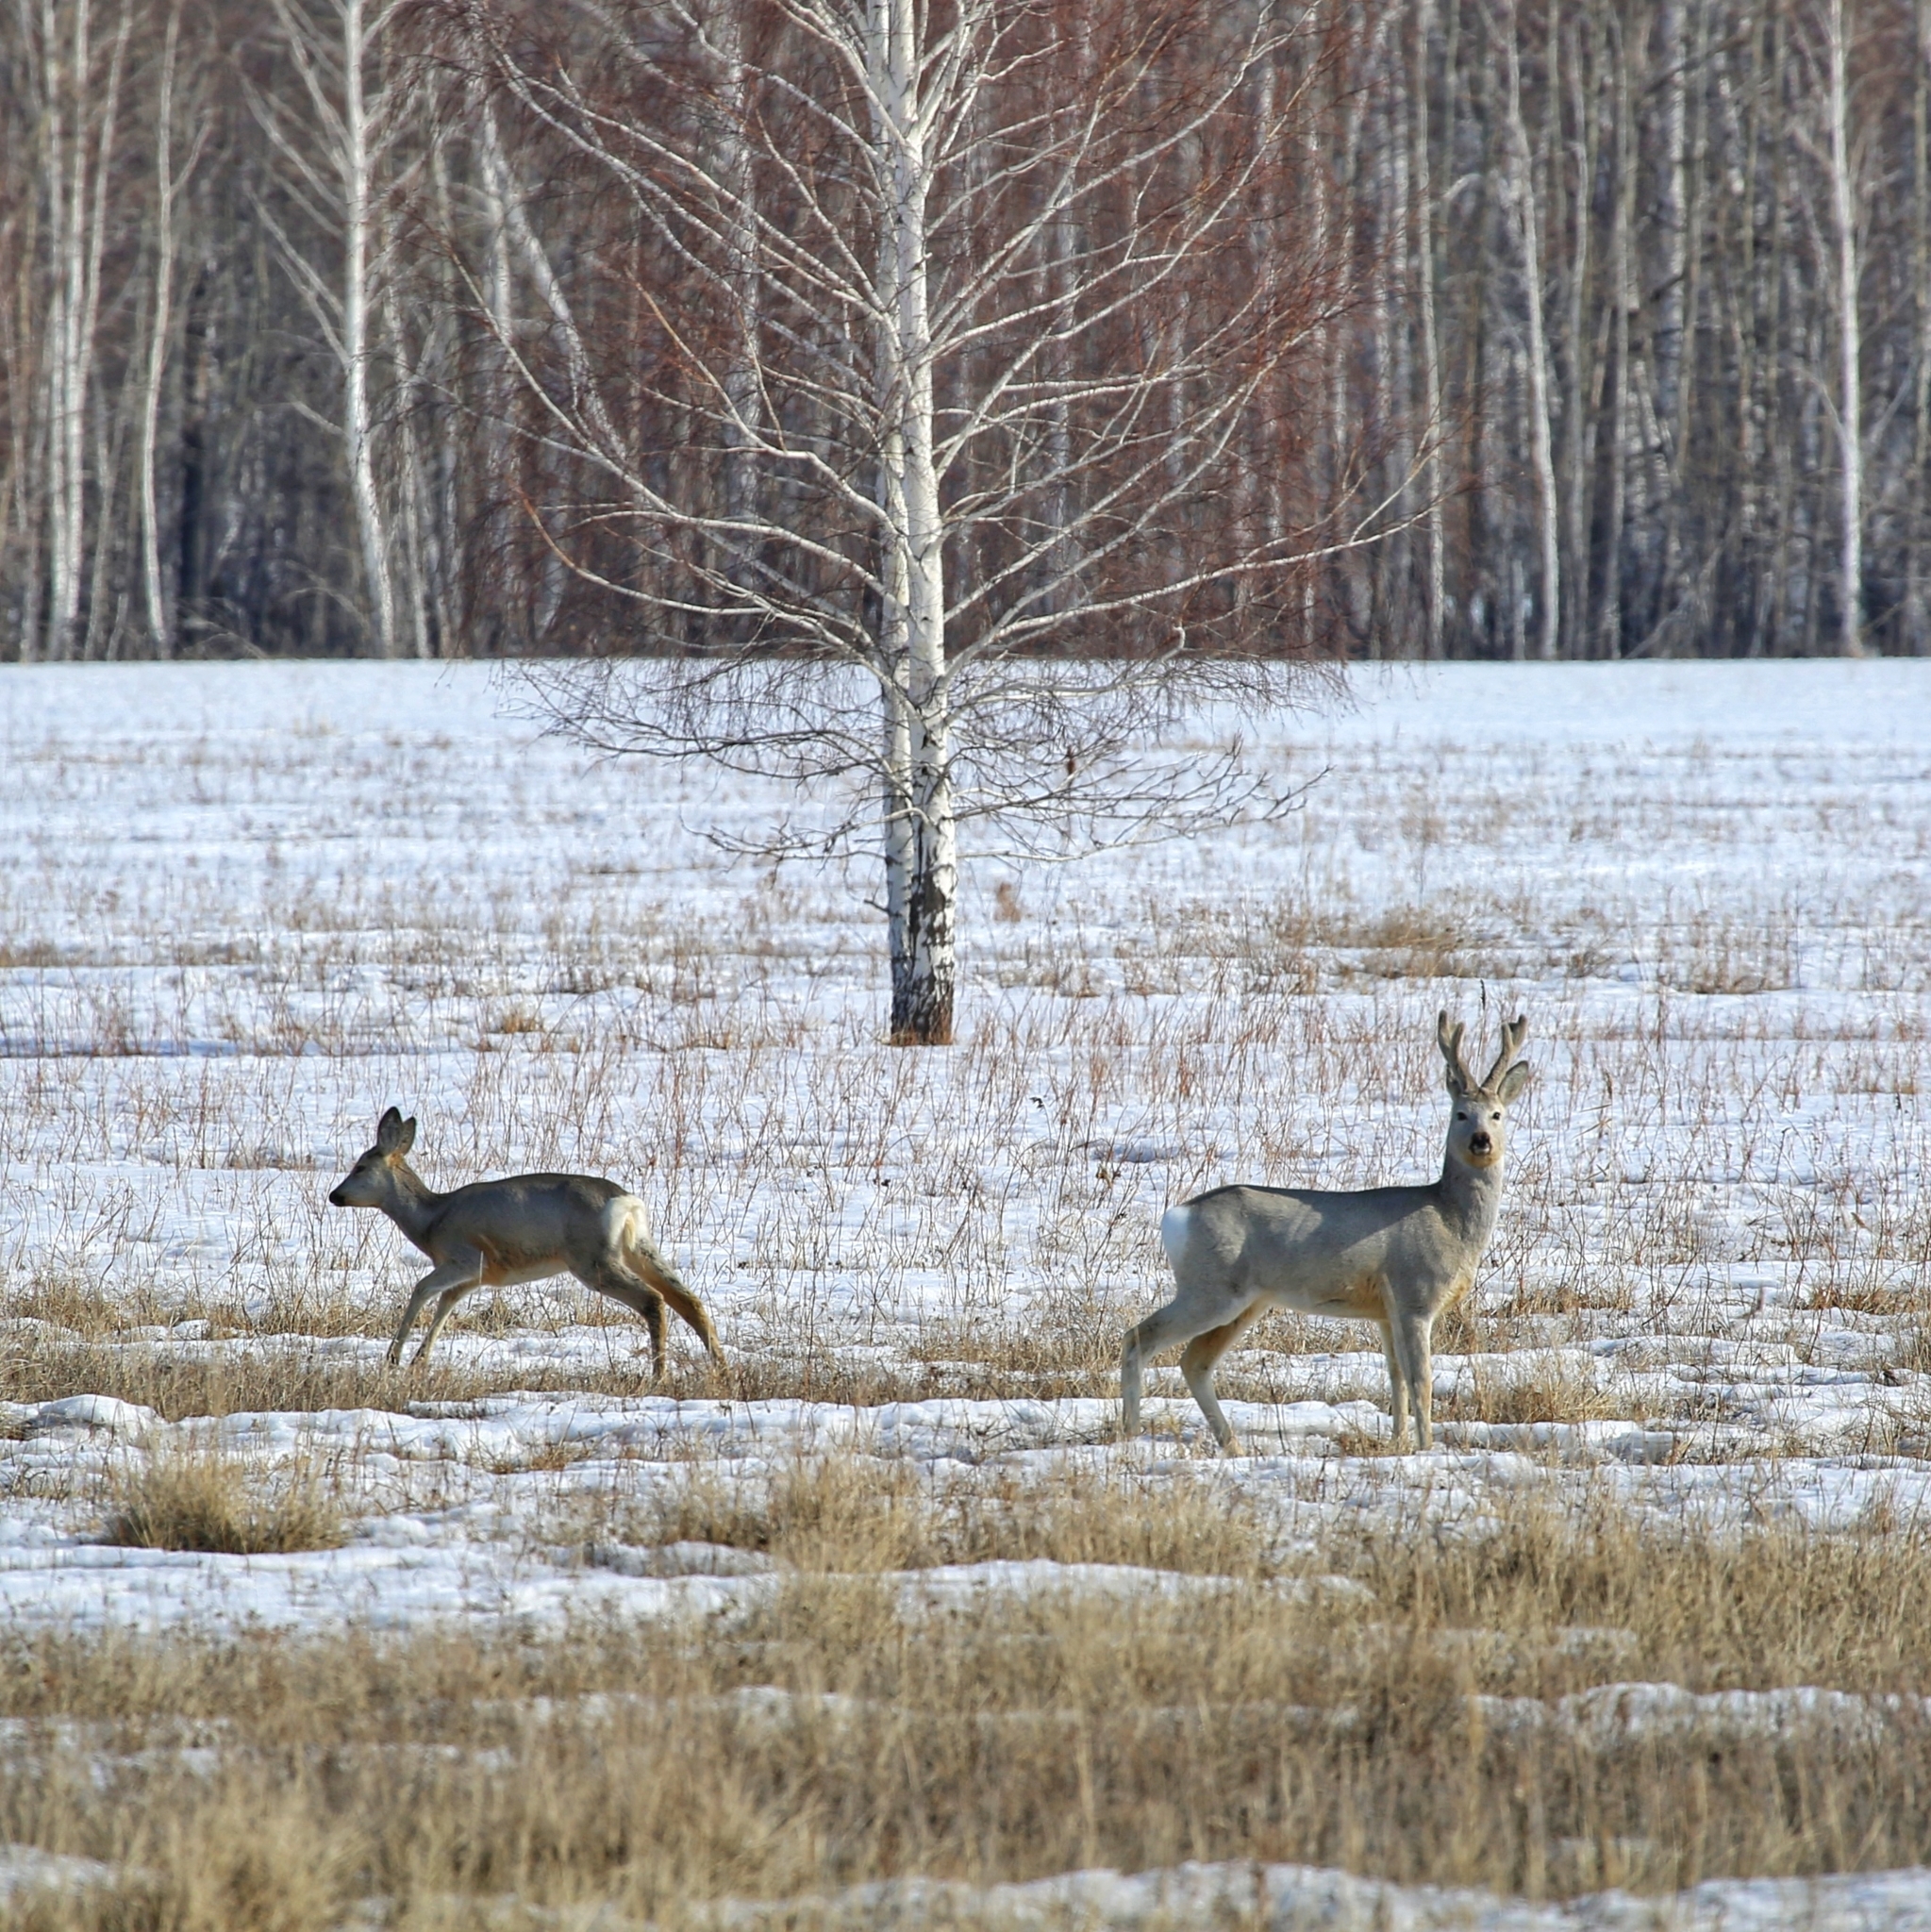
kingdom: Animalia
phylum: Chordata
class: Mammalia
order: Artiodactyla
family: Cervidae
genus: Capreolus
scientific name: Capreolus pygargus
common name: Siberian roe
